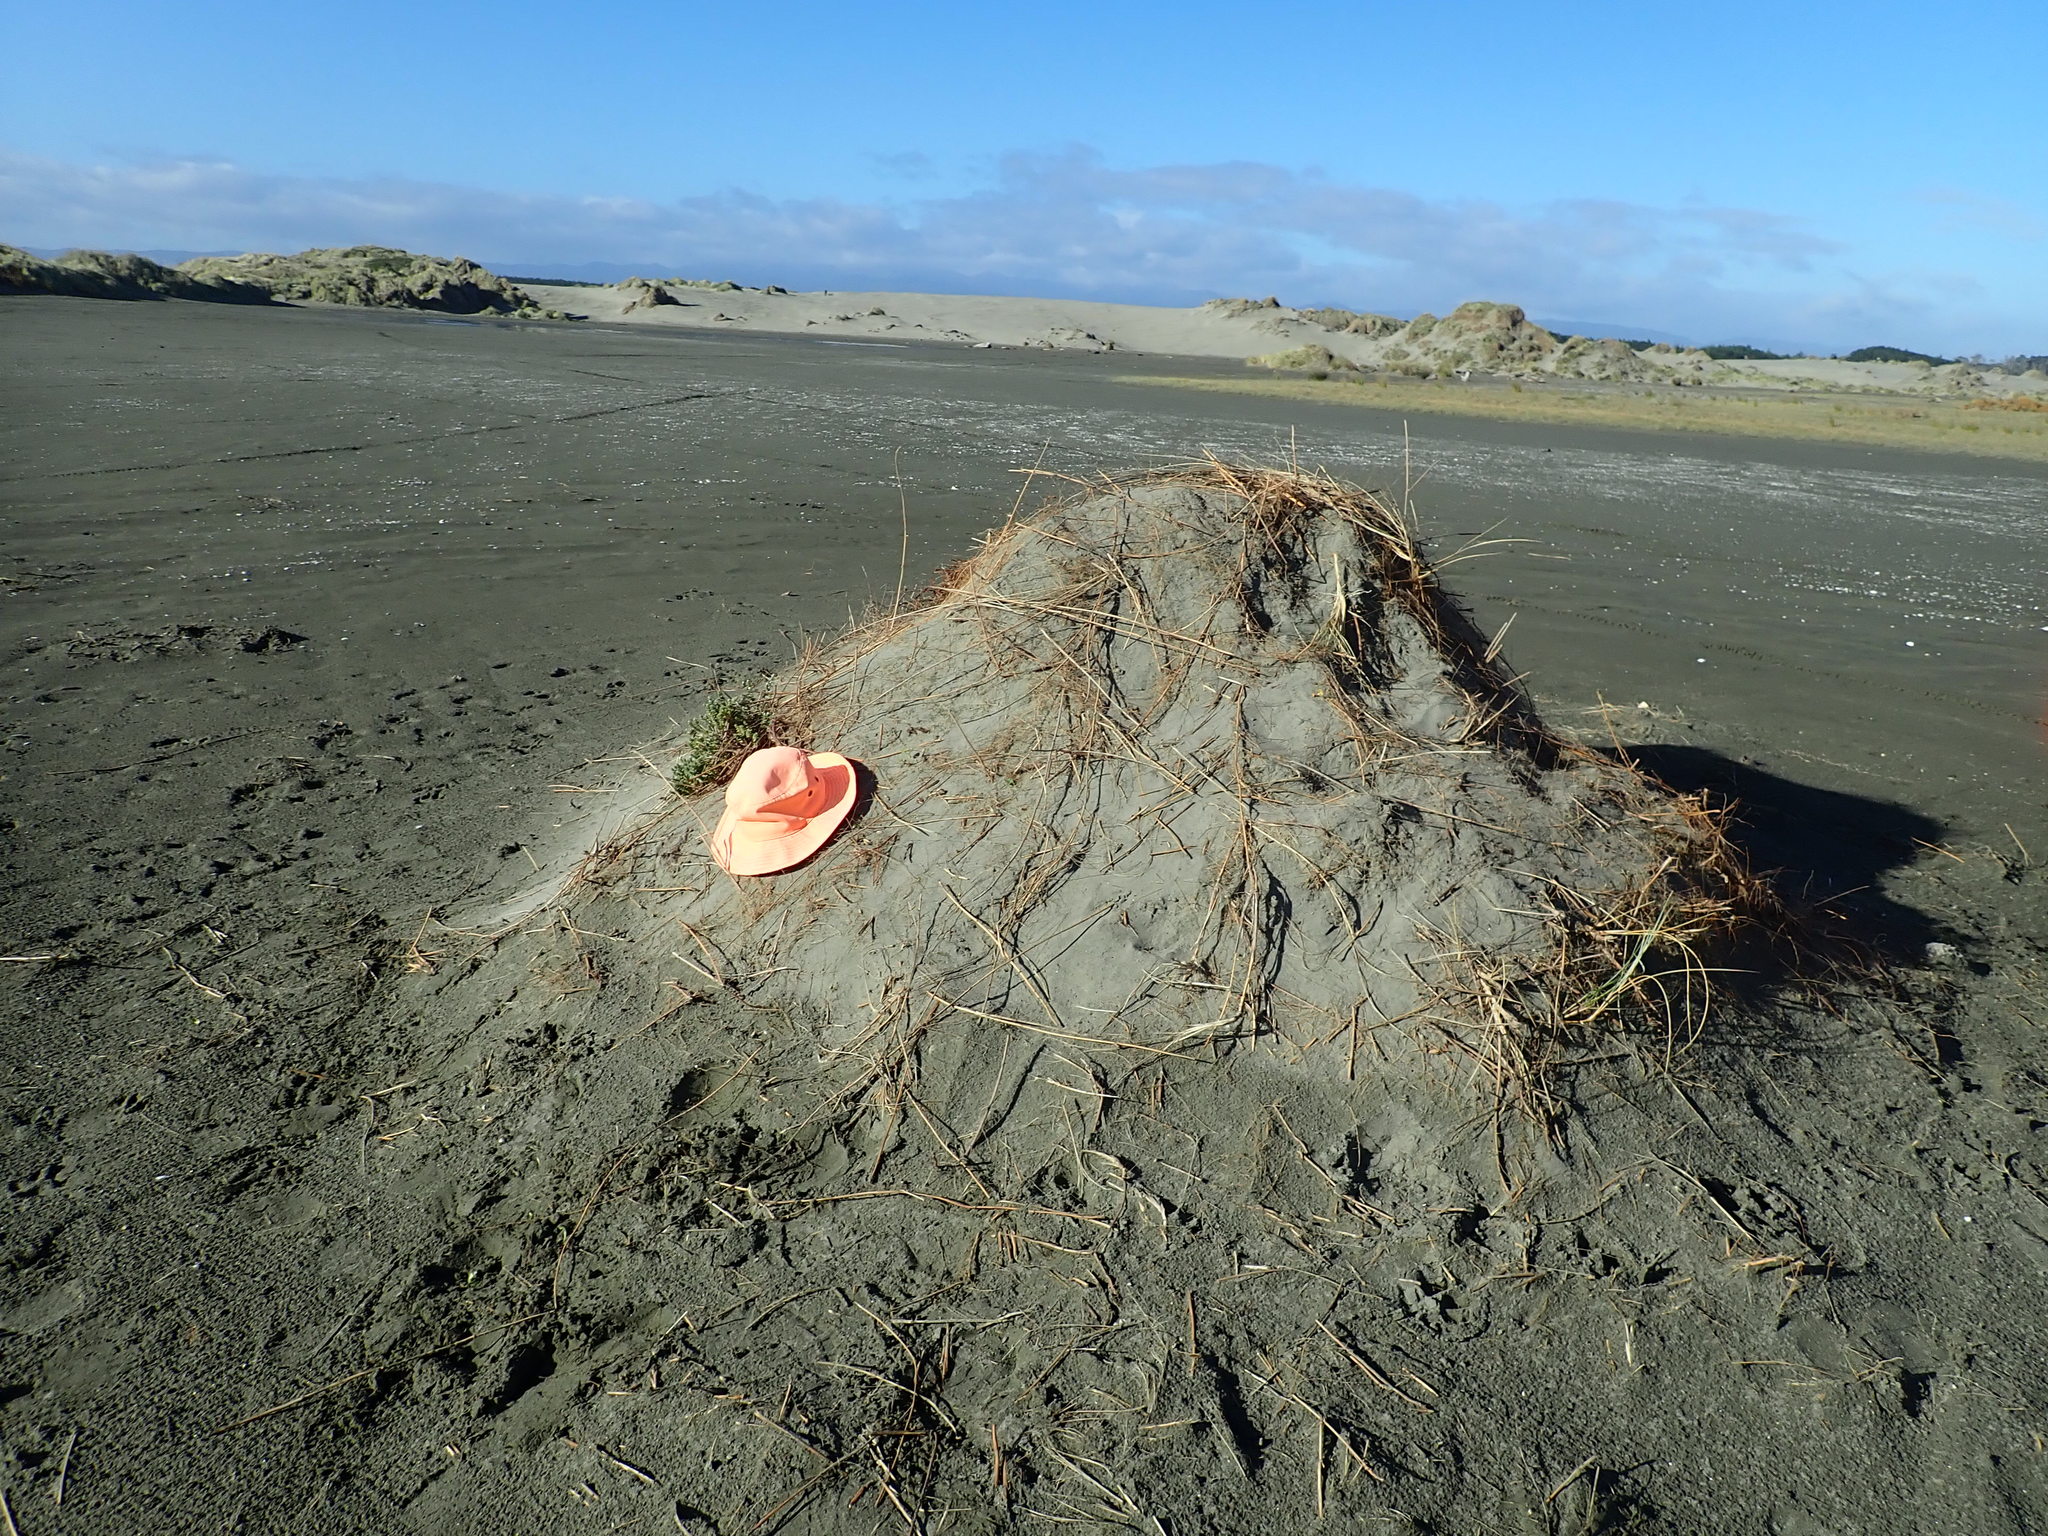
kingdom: Plantae
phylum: Tracheophyta
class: Magnoliopsida
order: Solanales
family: Convolvulaceae
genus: Calystegia
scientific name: Calystegia soldanella
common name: Sea bindweed
